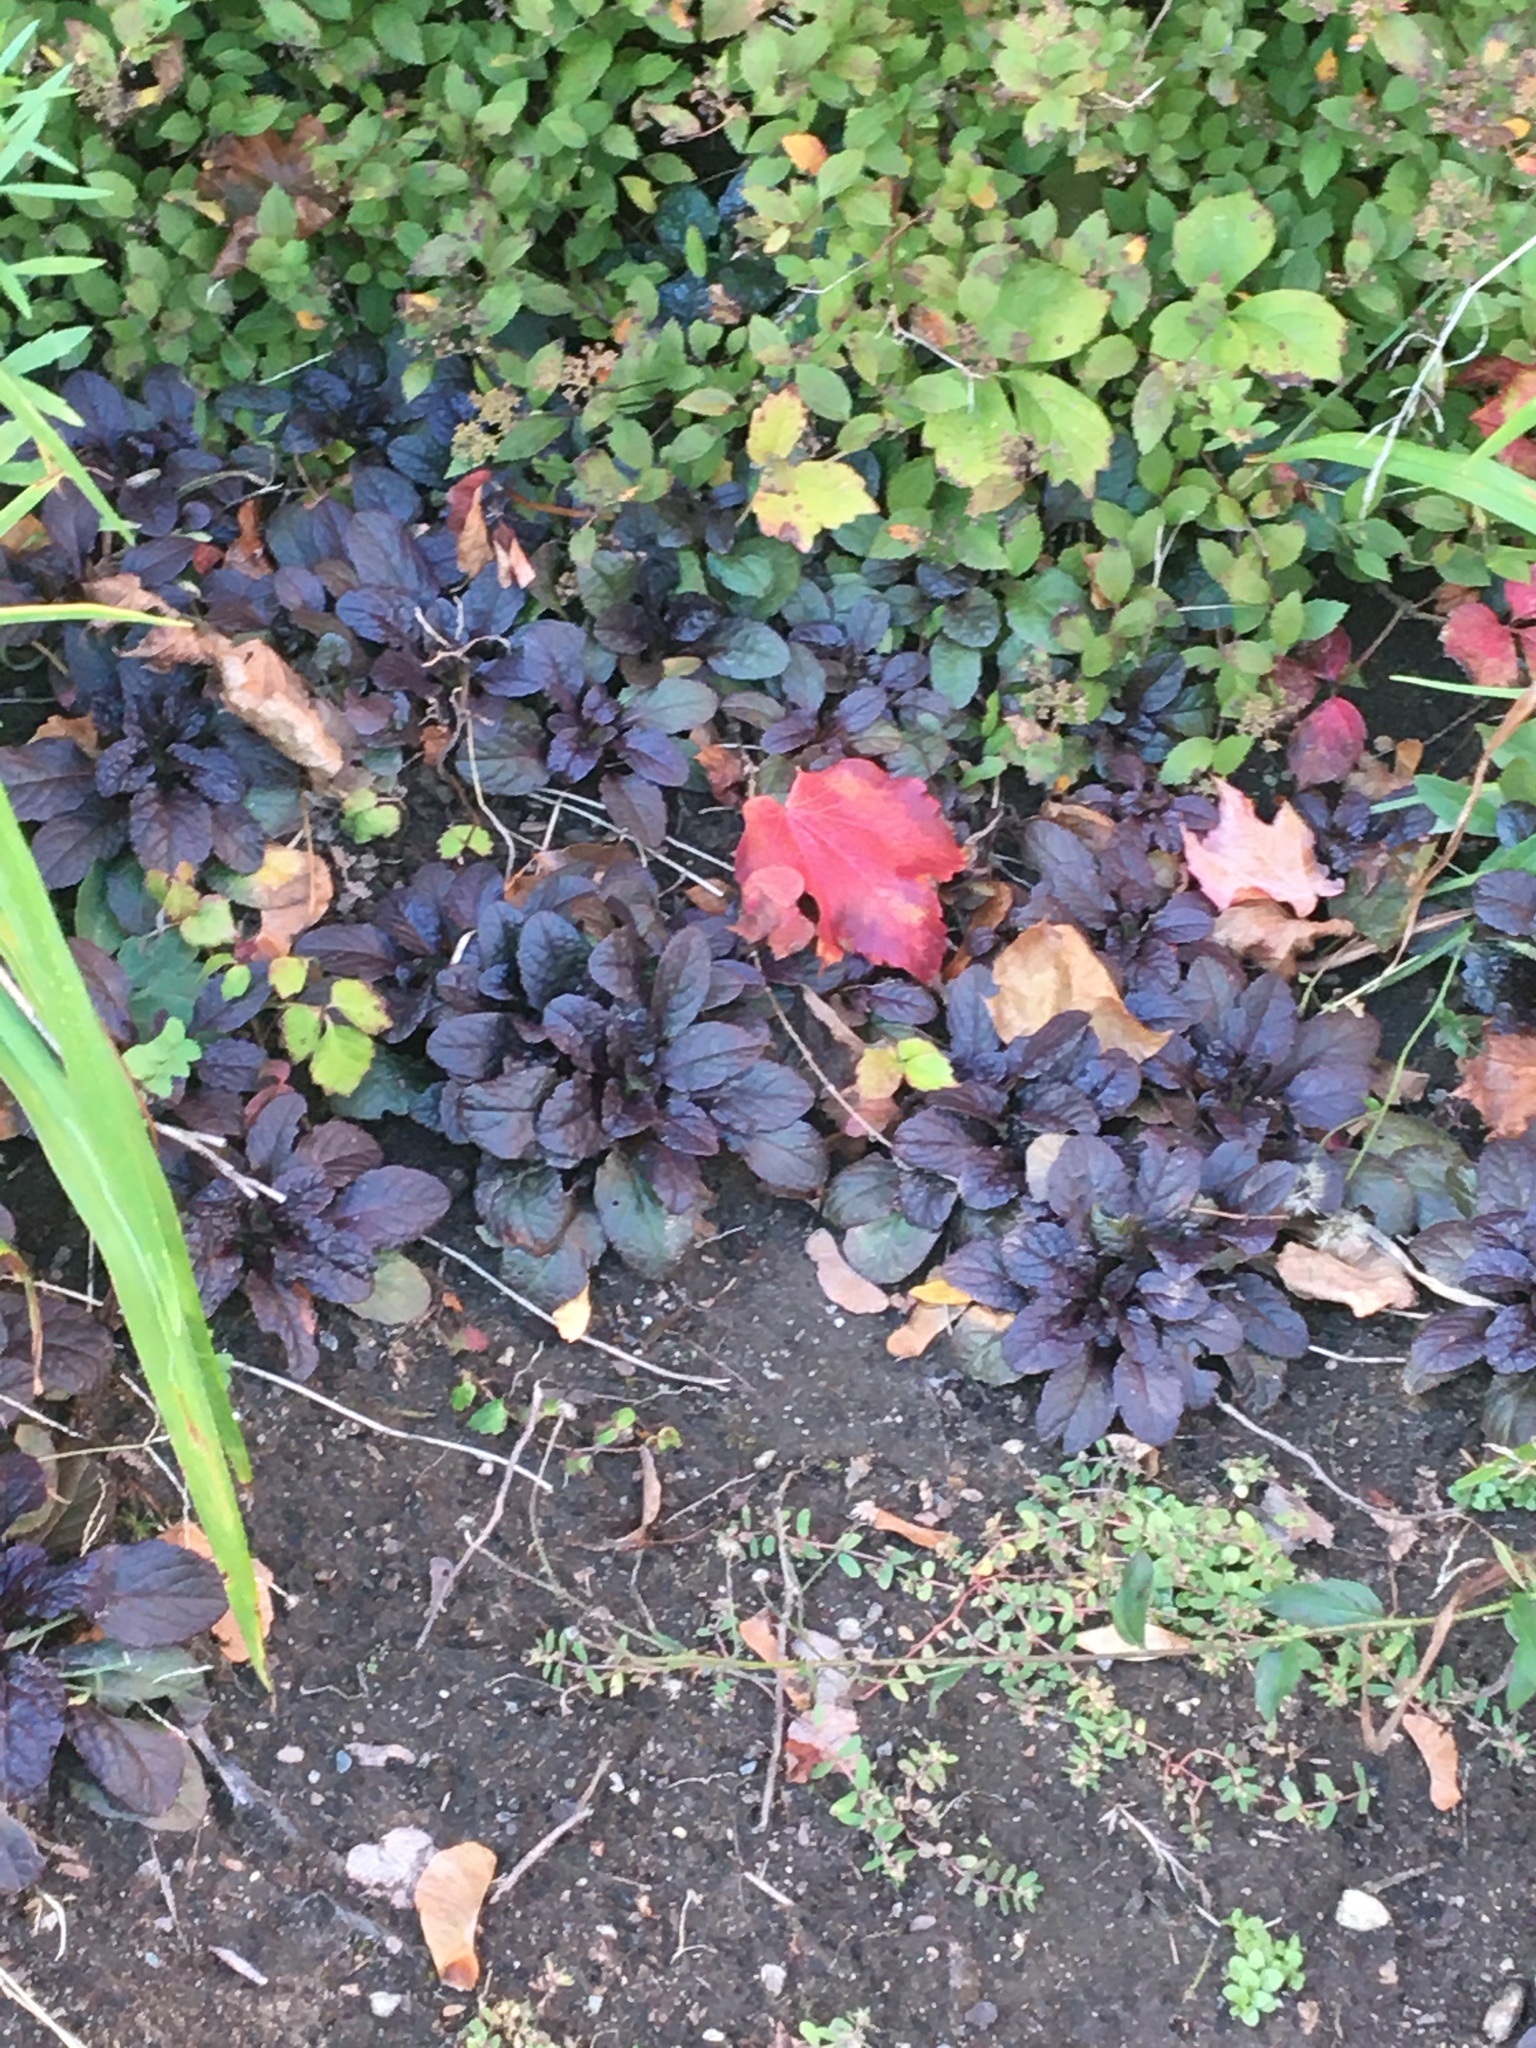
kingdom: Plantae
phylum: Tracheophyta
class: Magnoliopsida
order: Lamiales
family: Lamiaceae
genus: Ajuga
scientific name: Ajuga reptans
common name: Bugle
